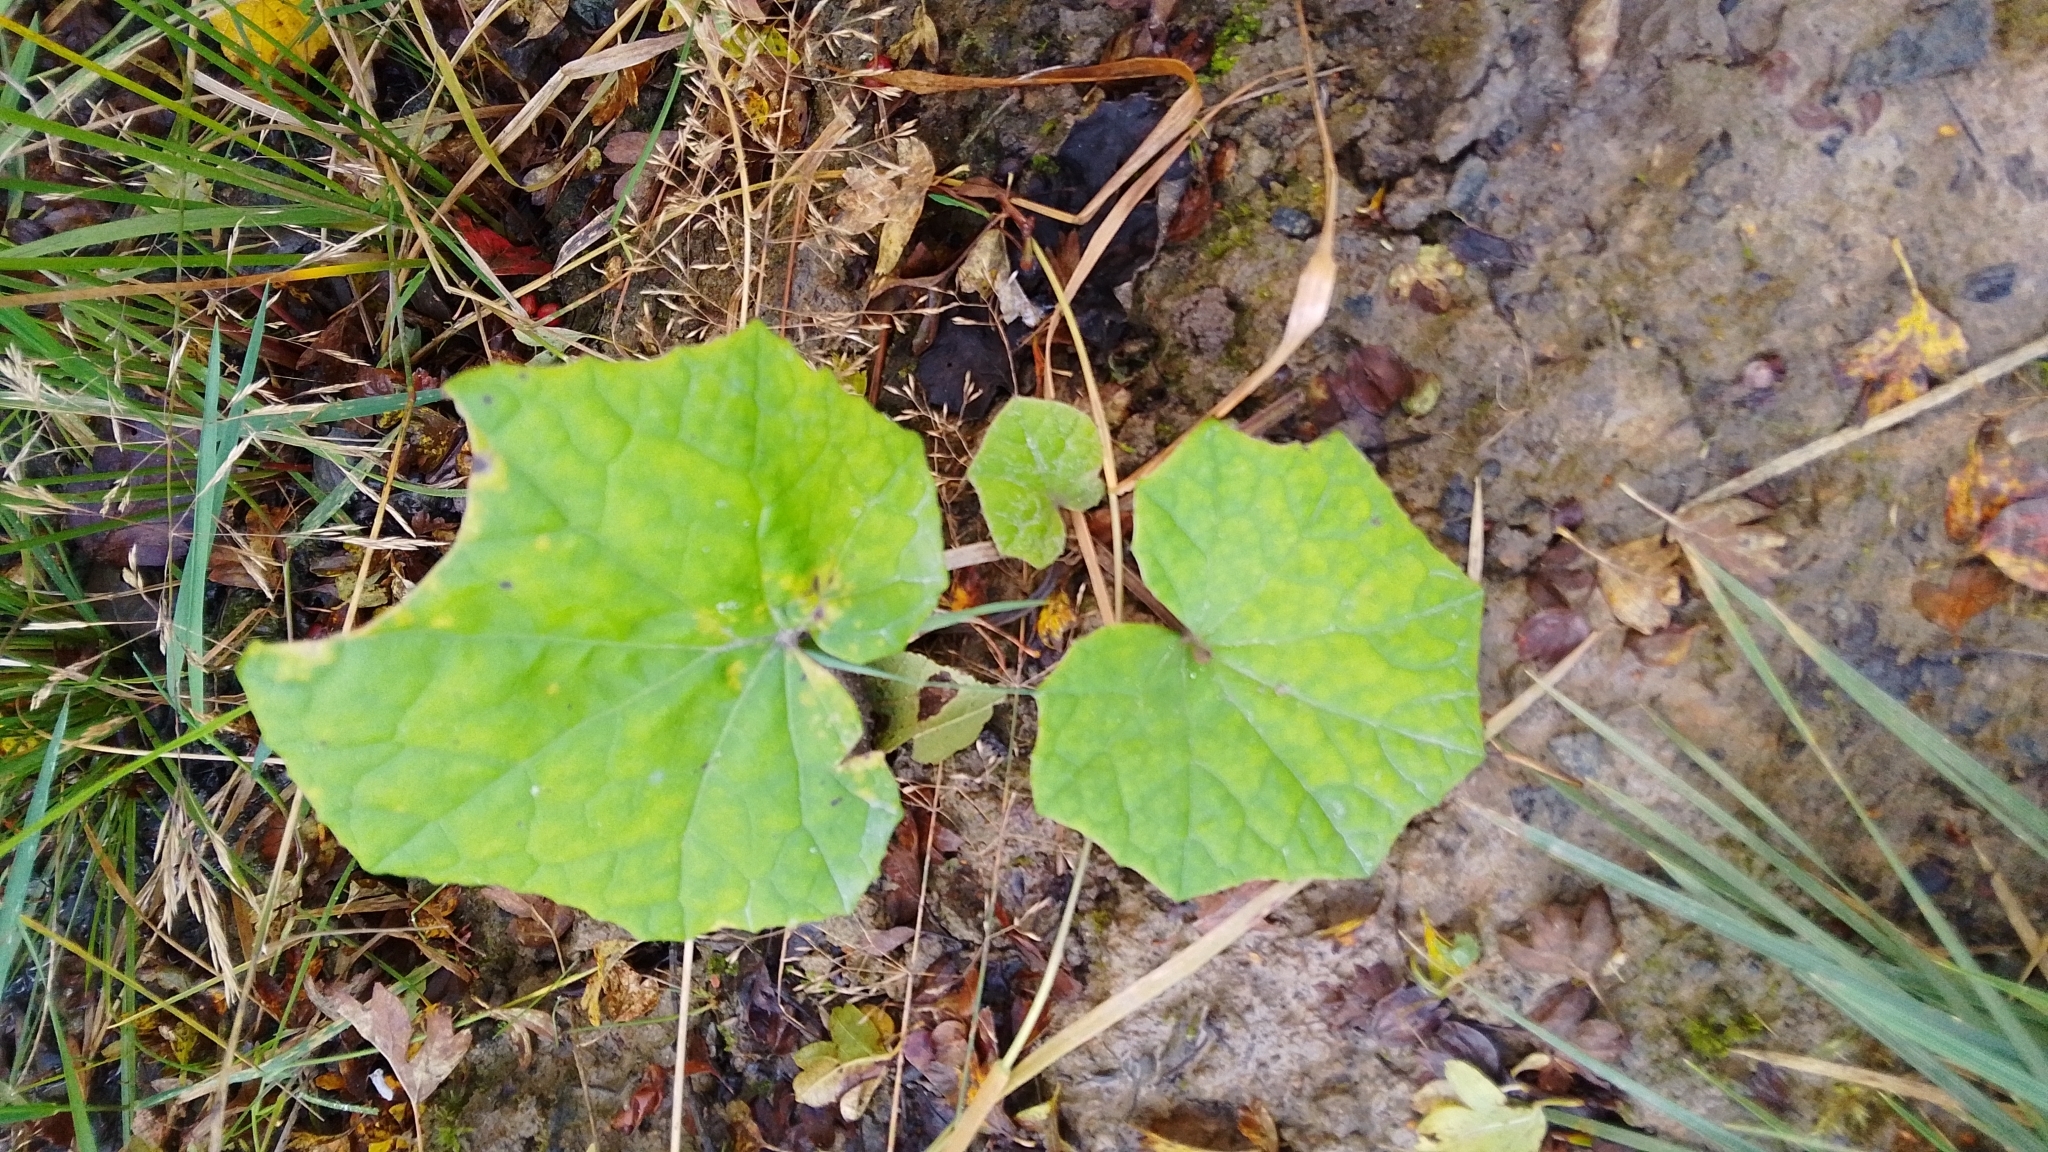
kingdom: Plantae
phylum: Tracheophyta
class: Magnoliopsida
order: Asterales
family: Asteraceae
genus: Tussilago
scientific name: Tussilago farfara
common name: Coltsfoot
